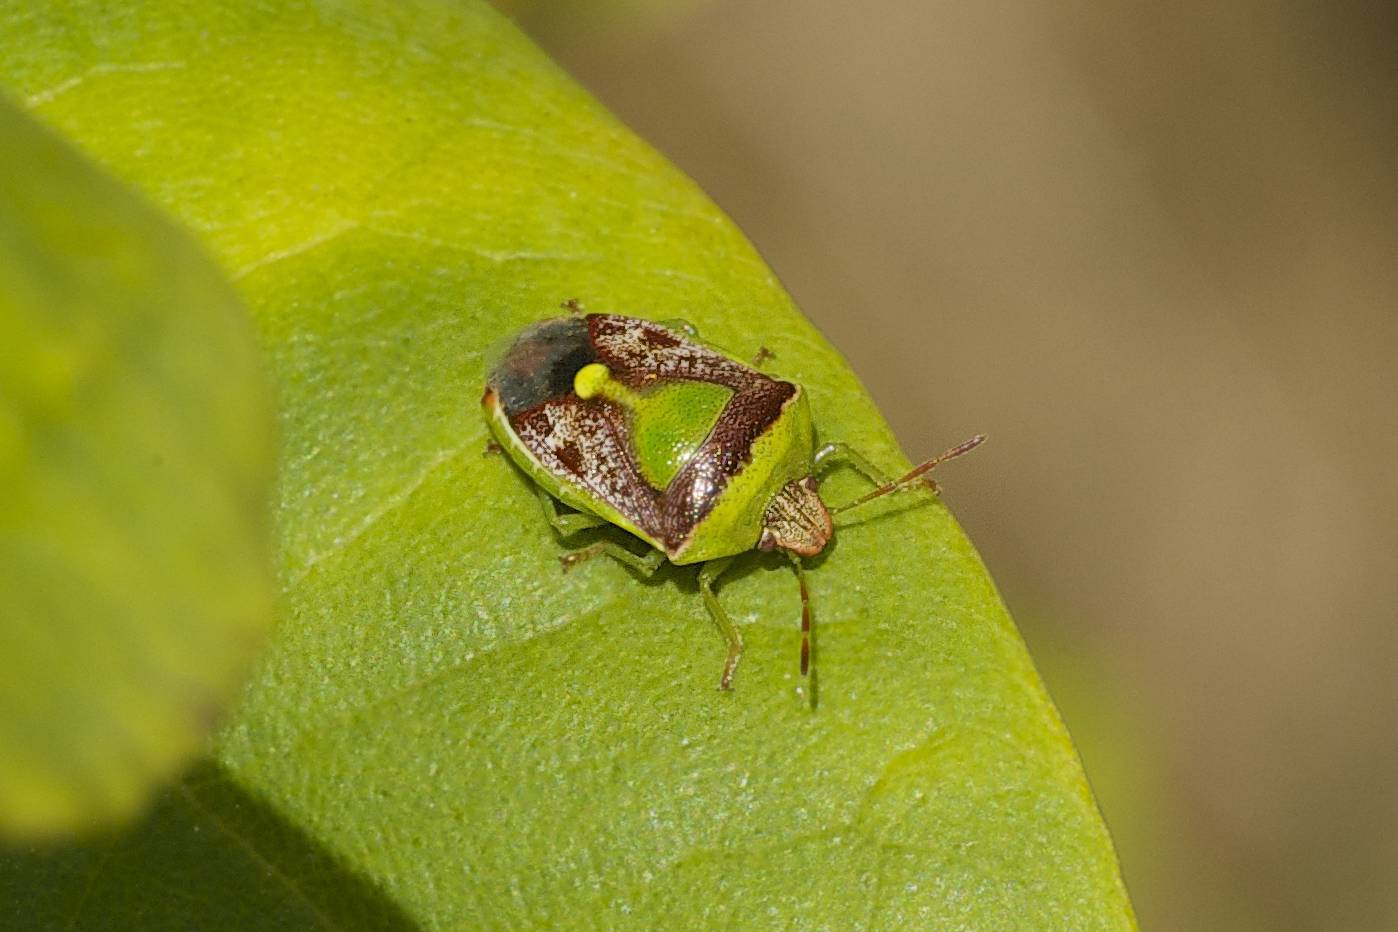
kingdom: Animalia
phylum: Arthropoda
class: Insecta
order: Hemiptera
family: Pentatomidae
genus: Banasa
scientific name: Banasa dimidiata
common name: Green burgundy stink bug
